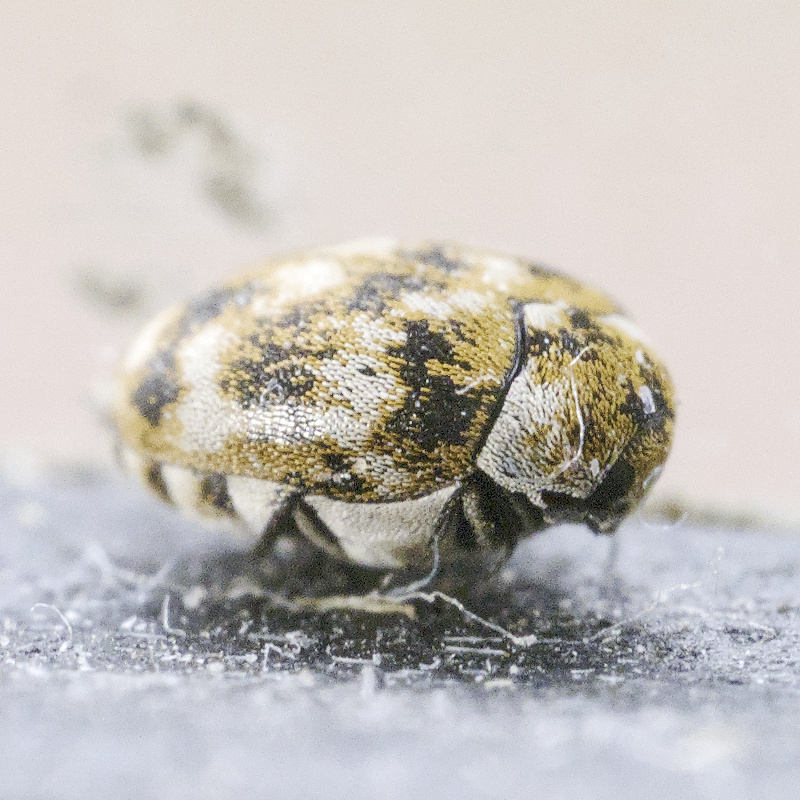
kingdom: Animalia
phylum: Arthropoda
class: Insecta
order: Coleoptera
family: Dermestidae
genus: Anthrenus
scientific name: Anthrenus verbasci
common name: Varied carpet beetle
